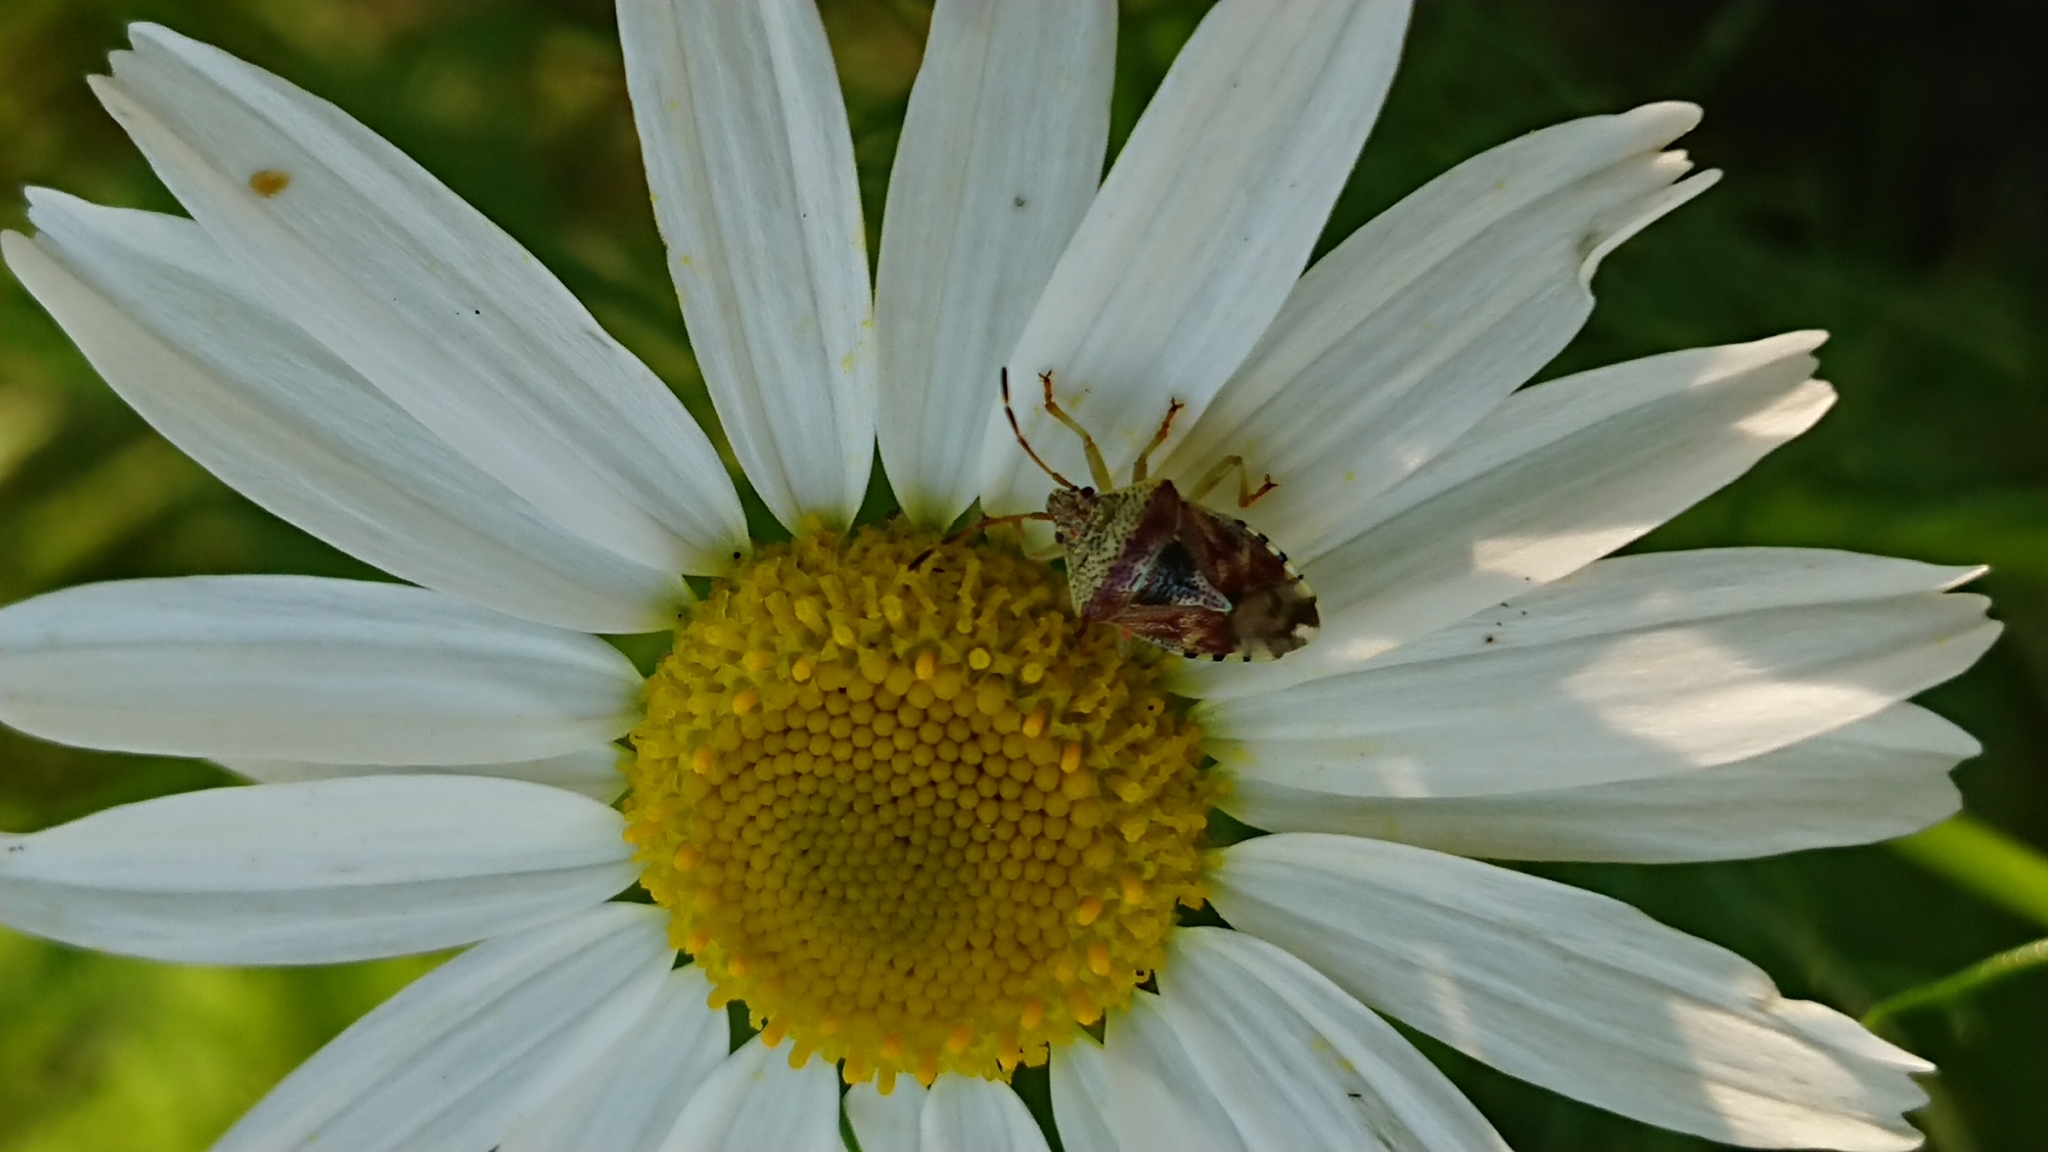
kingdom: Animalia
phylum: Arthropoda
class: Insecta
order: Hemiptera
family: Acanthosomatidae
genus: Elasmucha
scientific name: Elasmucha grisea
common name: Parent bug
